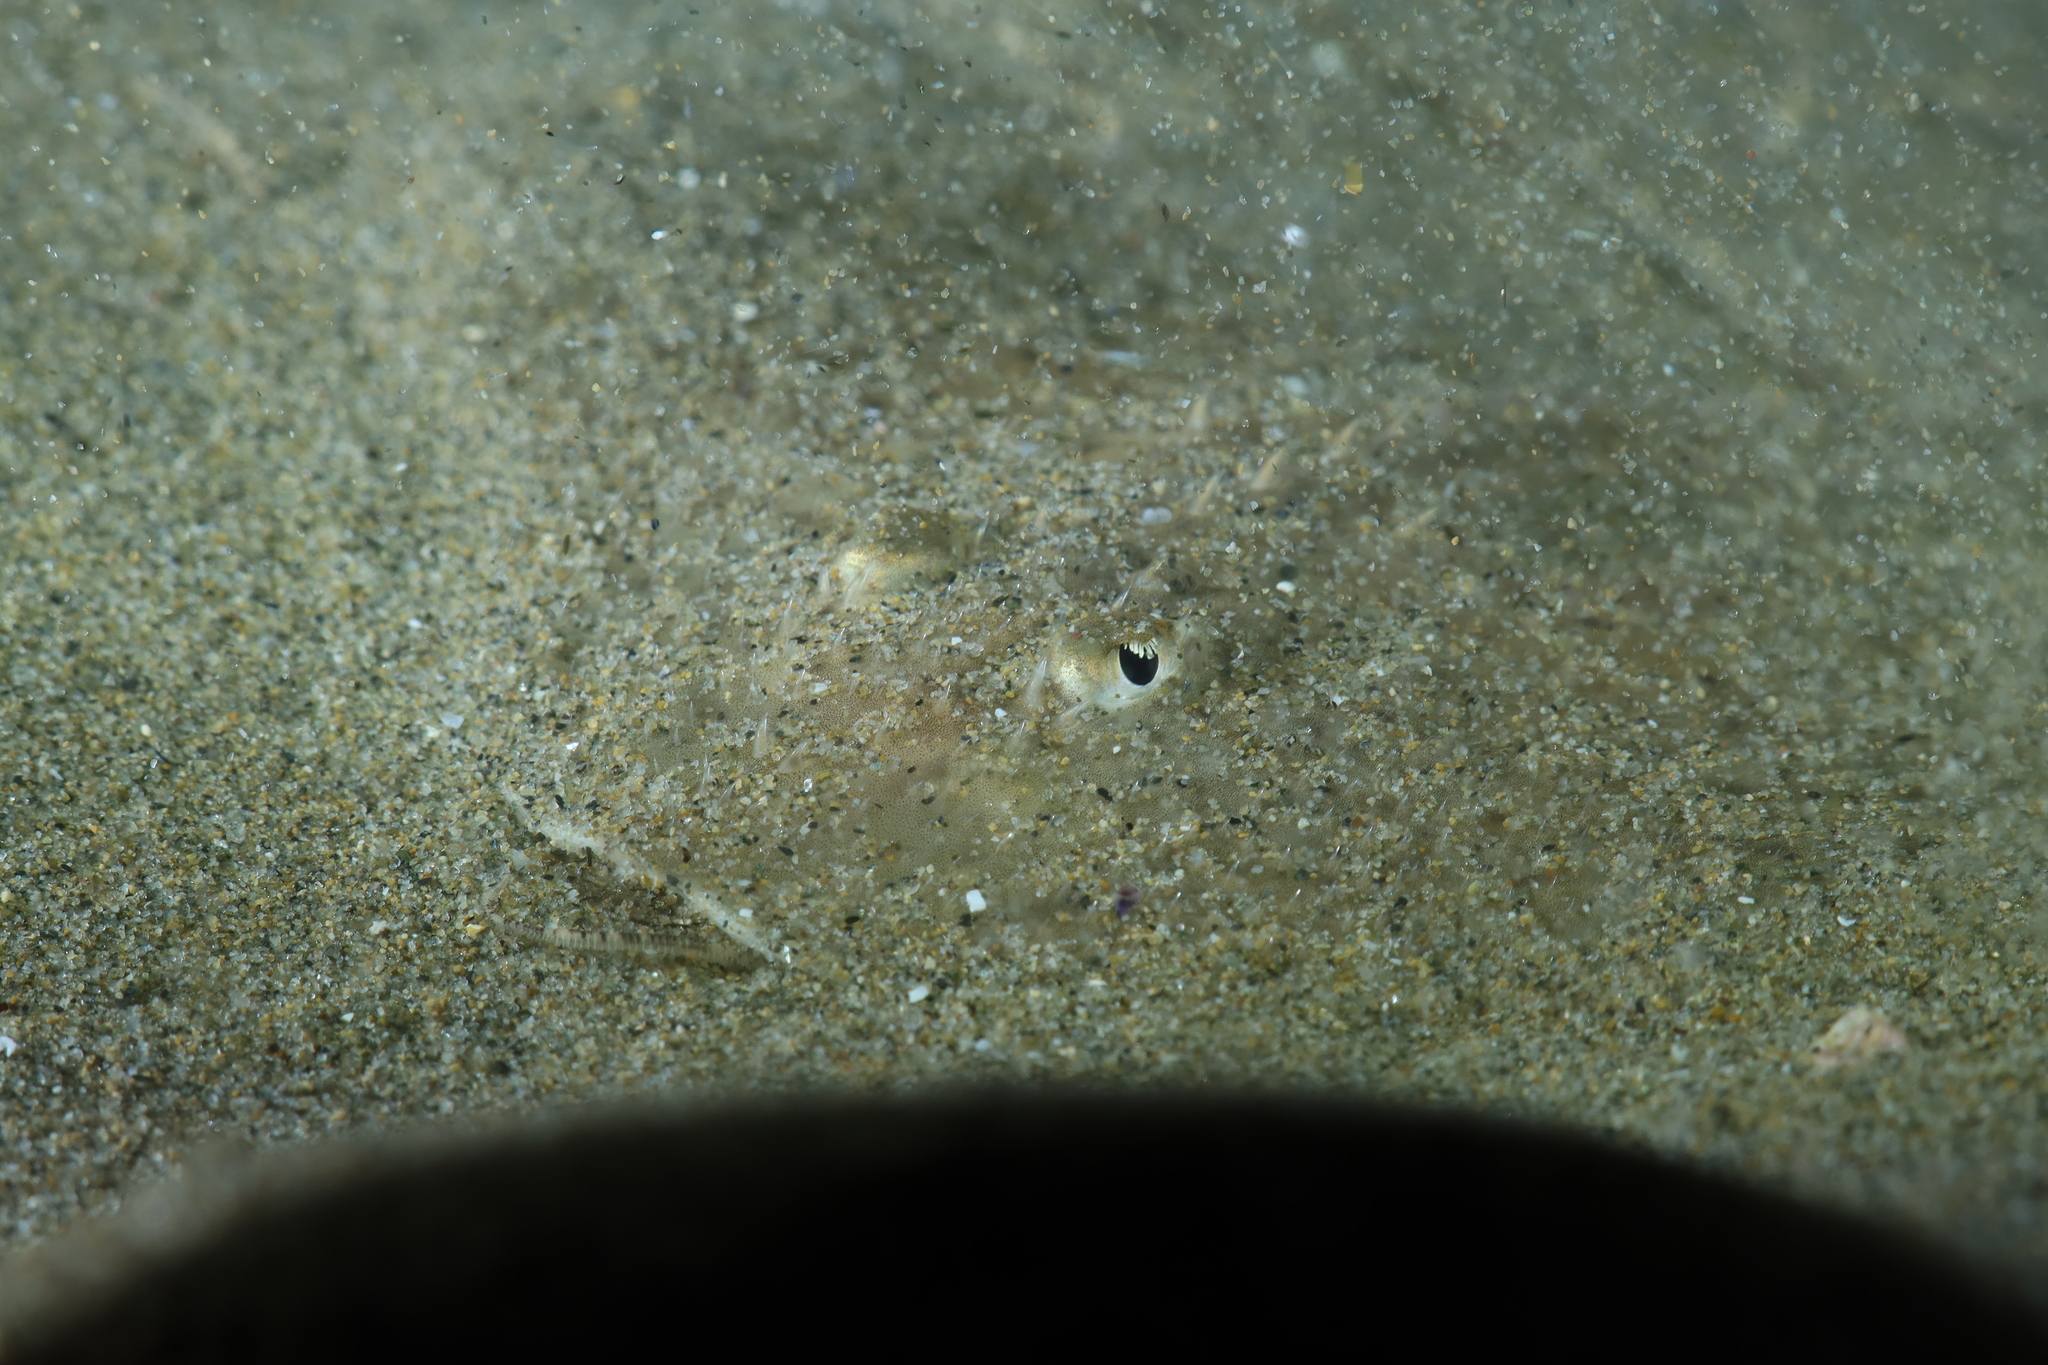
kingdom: Animalia
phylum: Chordata
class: Elasmobranchii
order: Rajiformes
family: Rajidae
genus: Raja
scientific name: Raja asterias
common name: Starry ray
